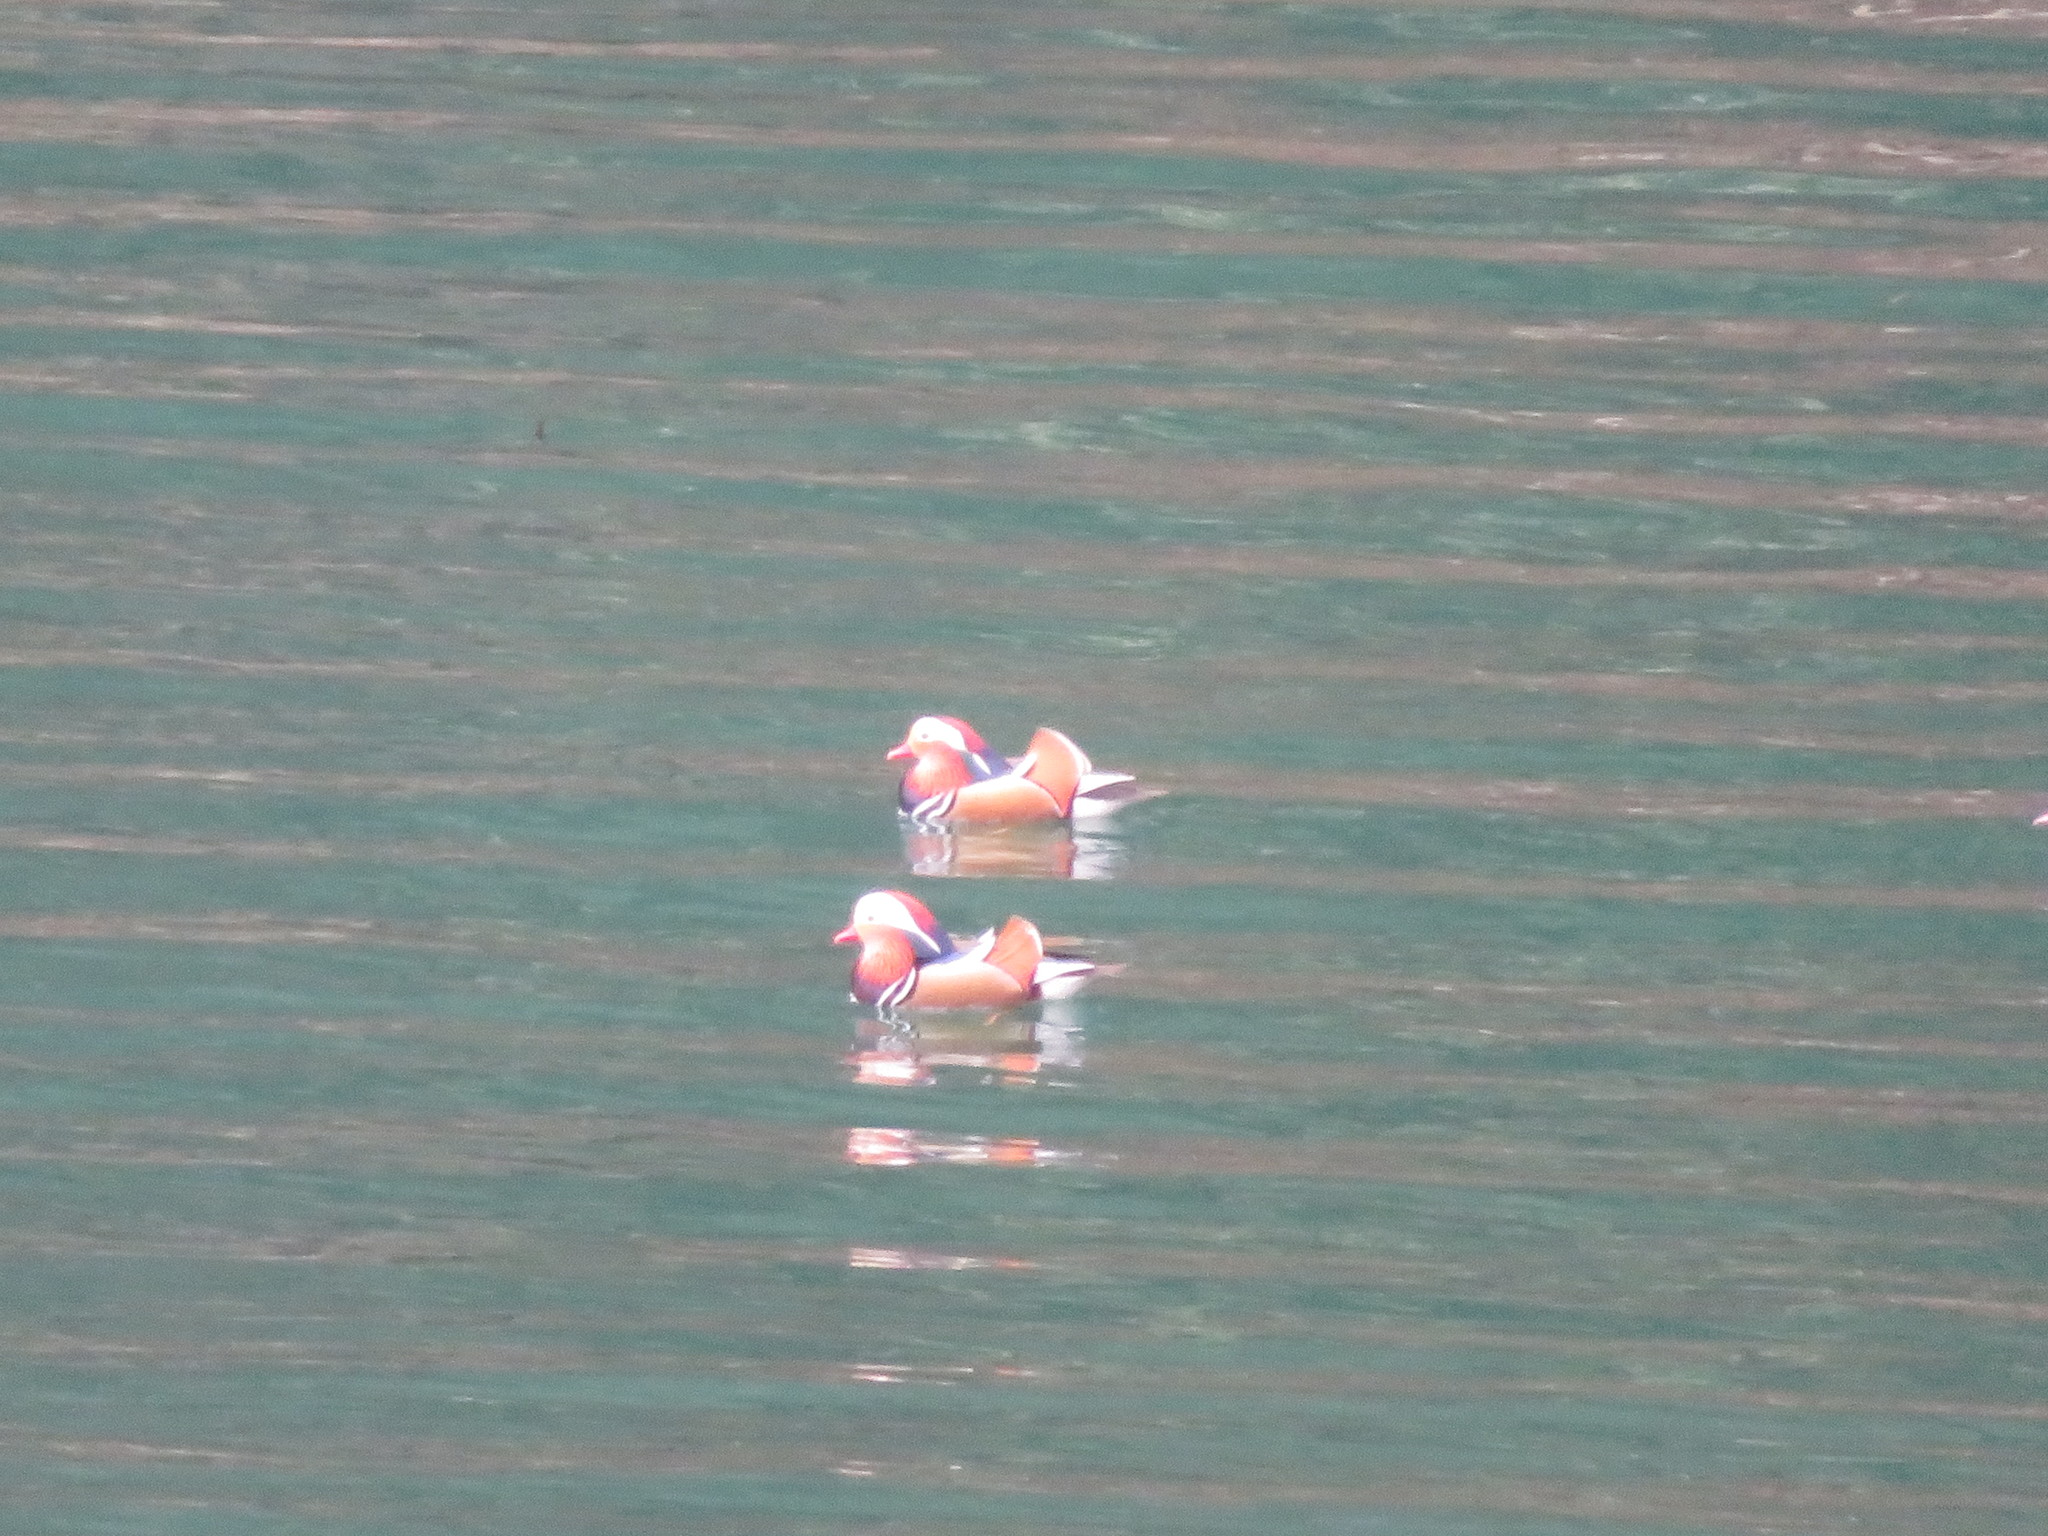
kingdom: Animalia
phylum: Chordata
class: Aves
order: Anseriformes
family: Anatidae
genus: Aix
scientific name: Aix galericulata
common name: Mandarin duck
